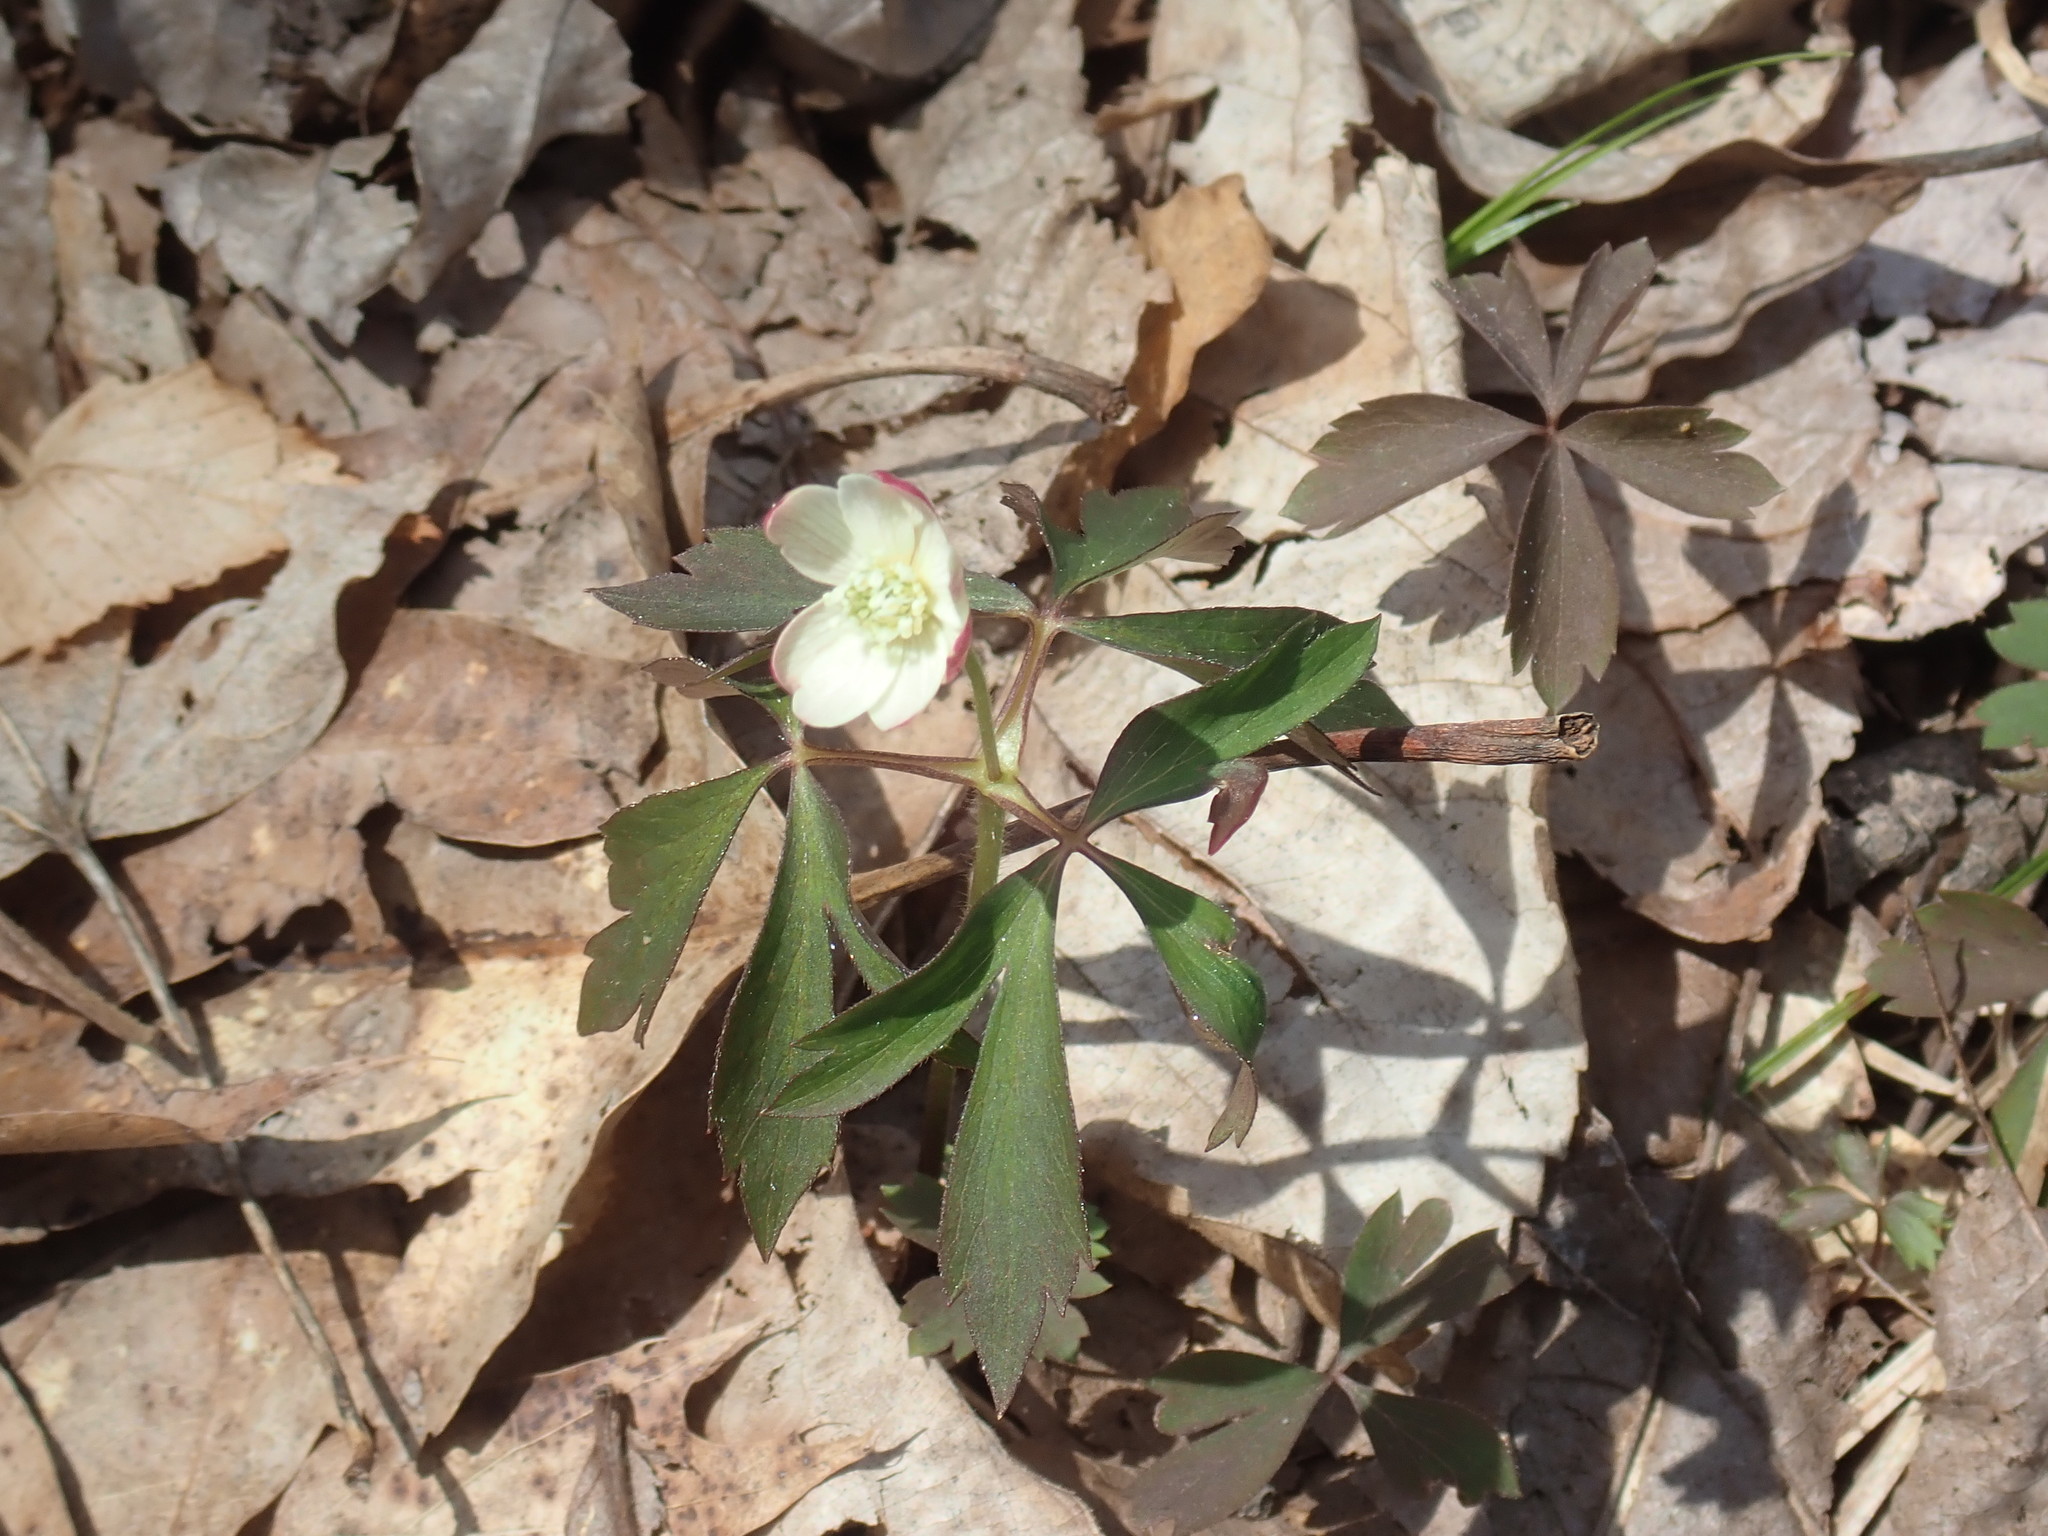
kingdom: Plantae
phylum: Tracheophyta
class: Magnoliopsida
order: Ranunculales
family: Ranunculaceae
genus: Anemone
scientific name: Anemone quinquefolia
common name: Wood anemone
